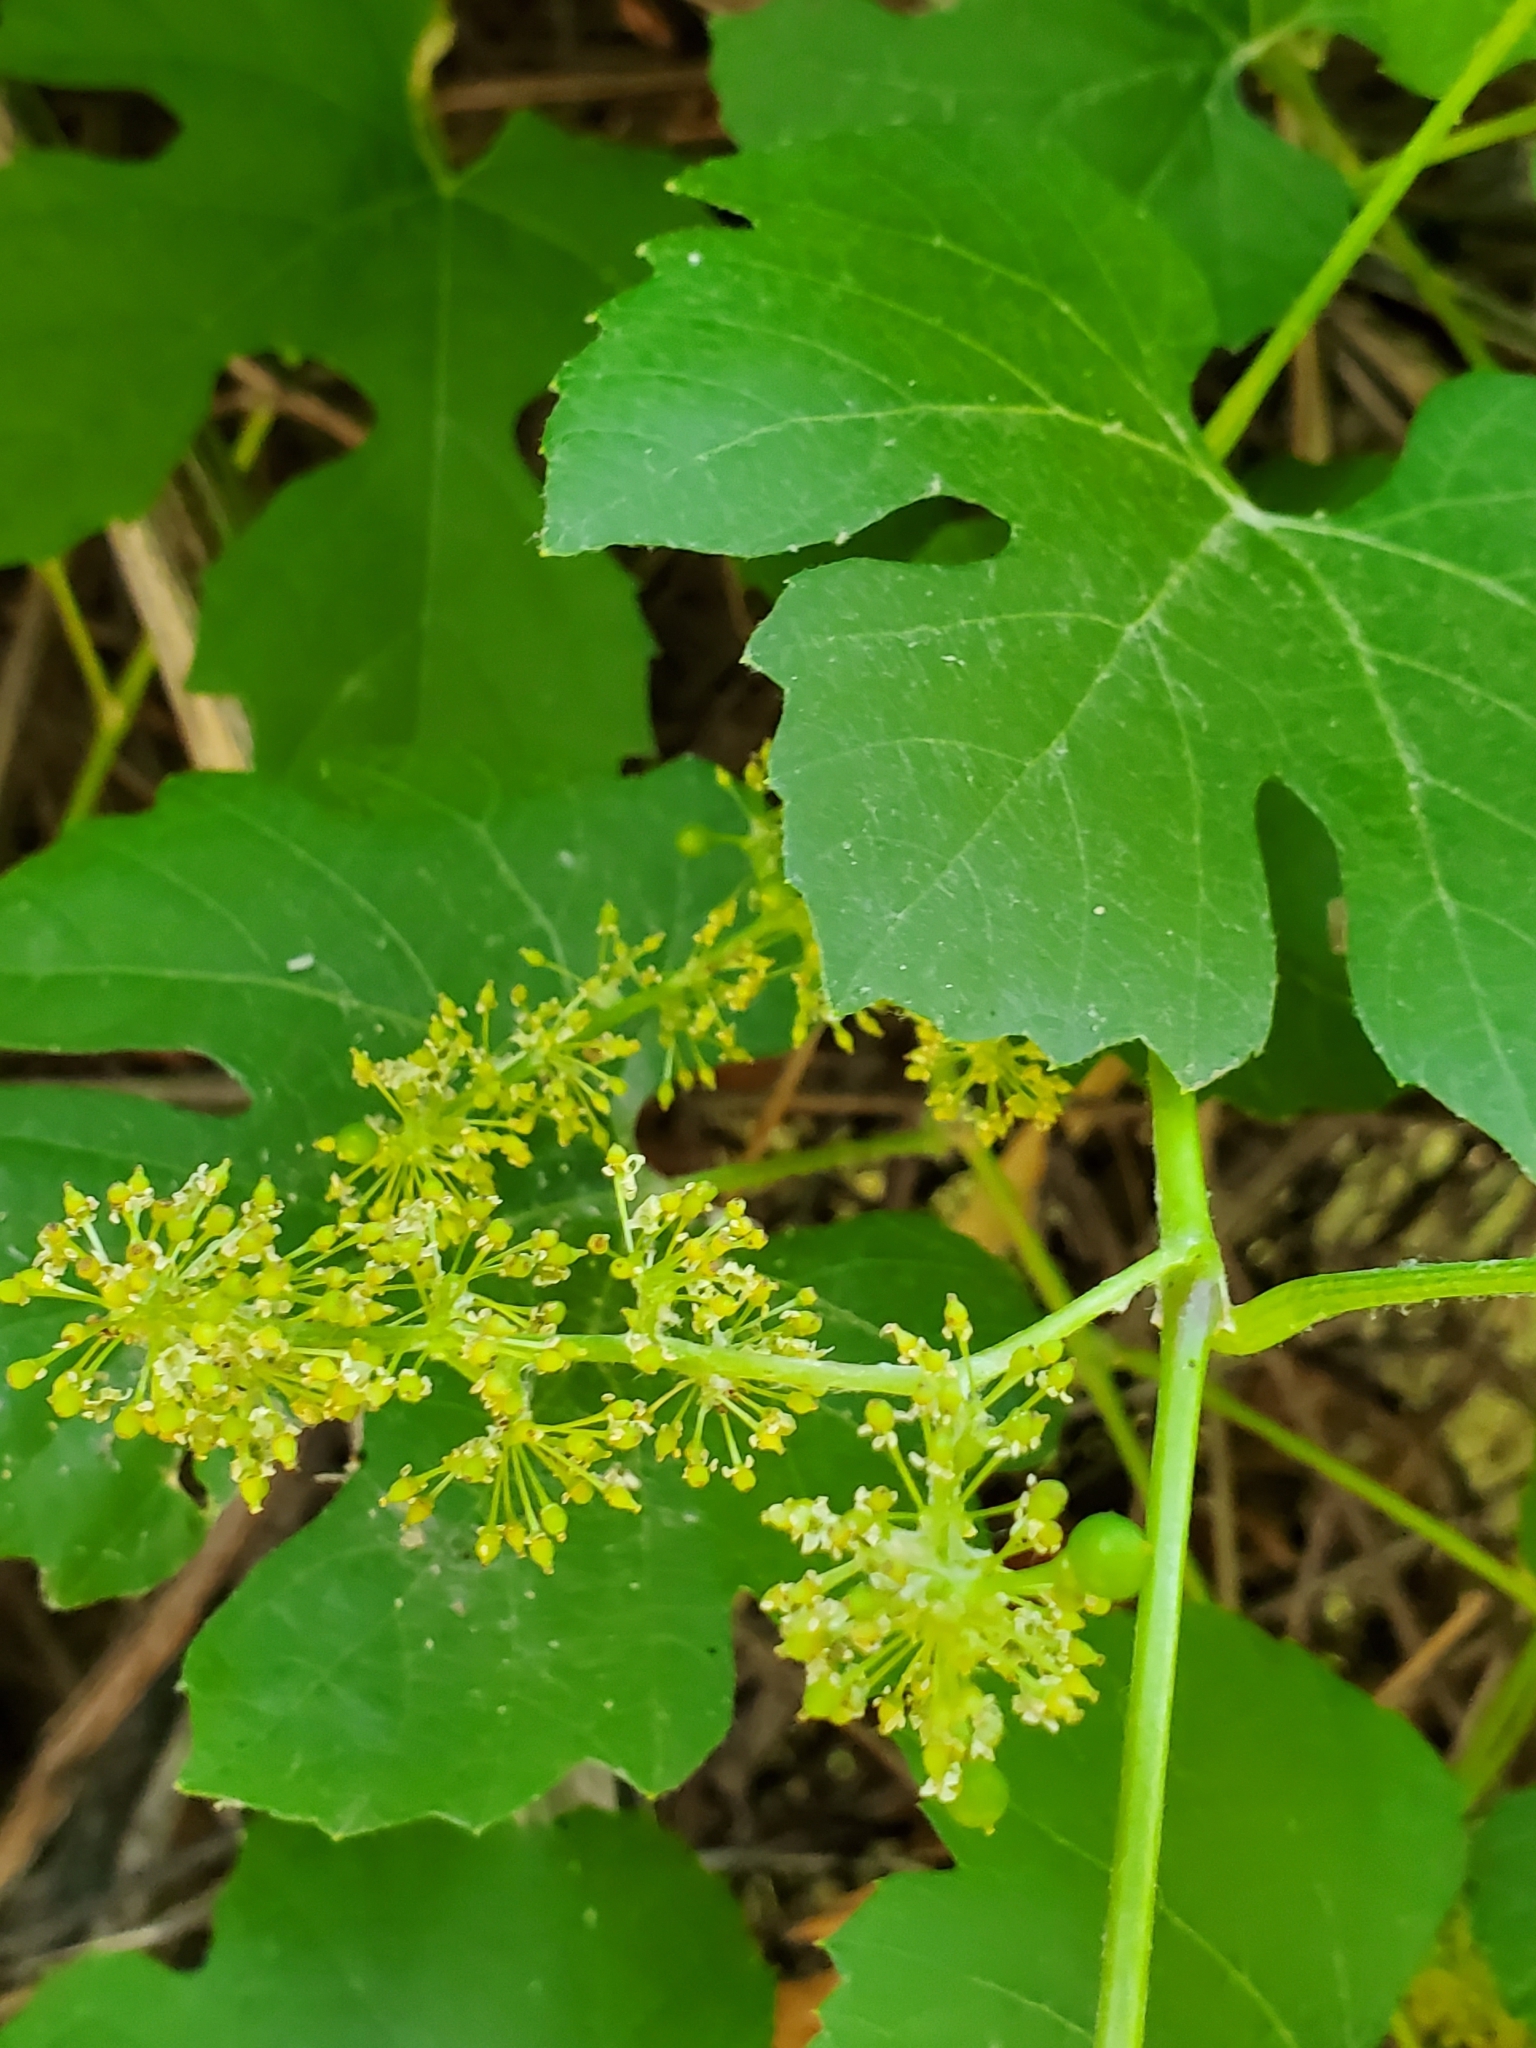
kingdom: Plantae
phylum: Tracheophyta
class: Magnoliopsida
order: Vitales
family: Vitaceae
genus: Vitis
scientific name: Vitis girdiana
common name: Desert wild grape
